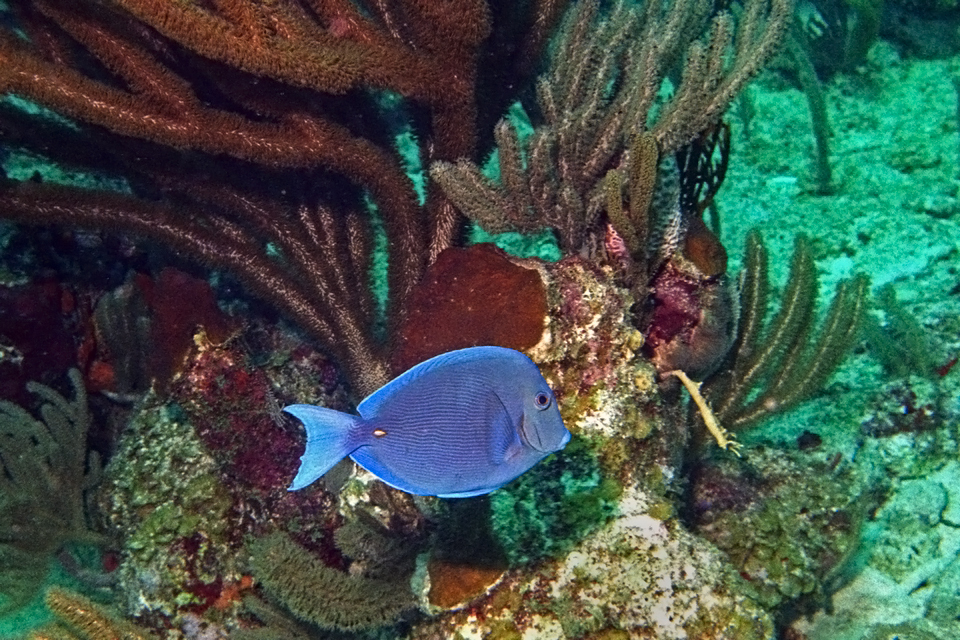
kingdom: Animalia
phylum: Chordata
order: Perciformes
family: Acanthuridae
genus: Acanthurus
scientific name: Acanthurus coeruleus
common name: Blue tang
